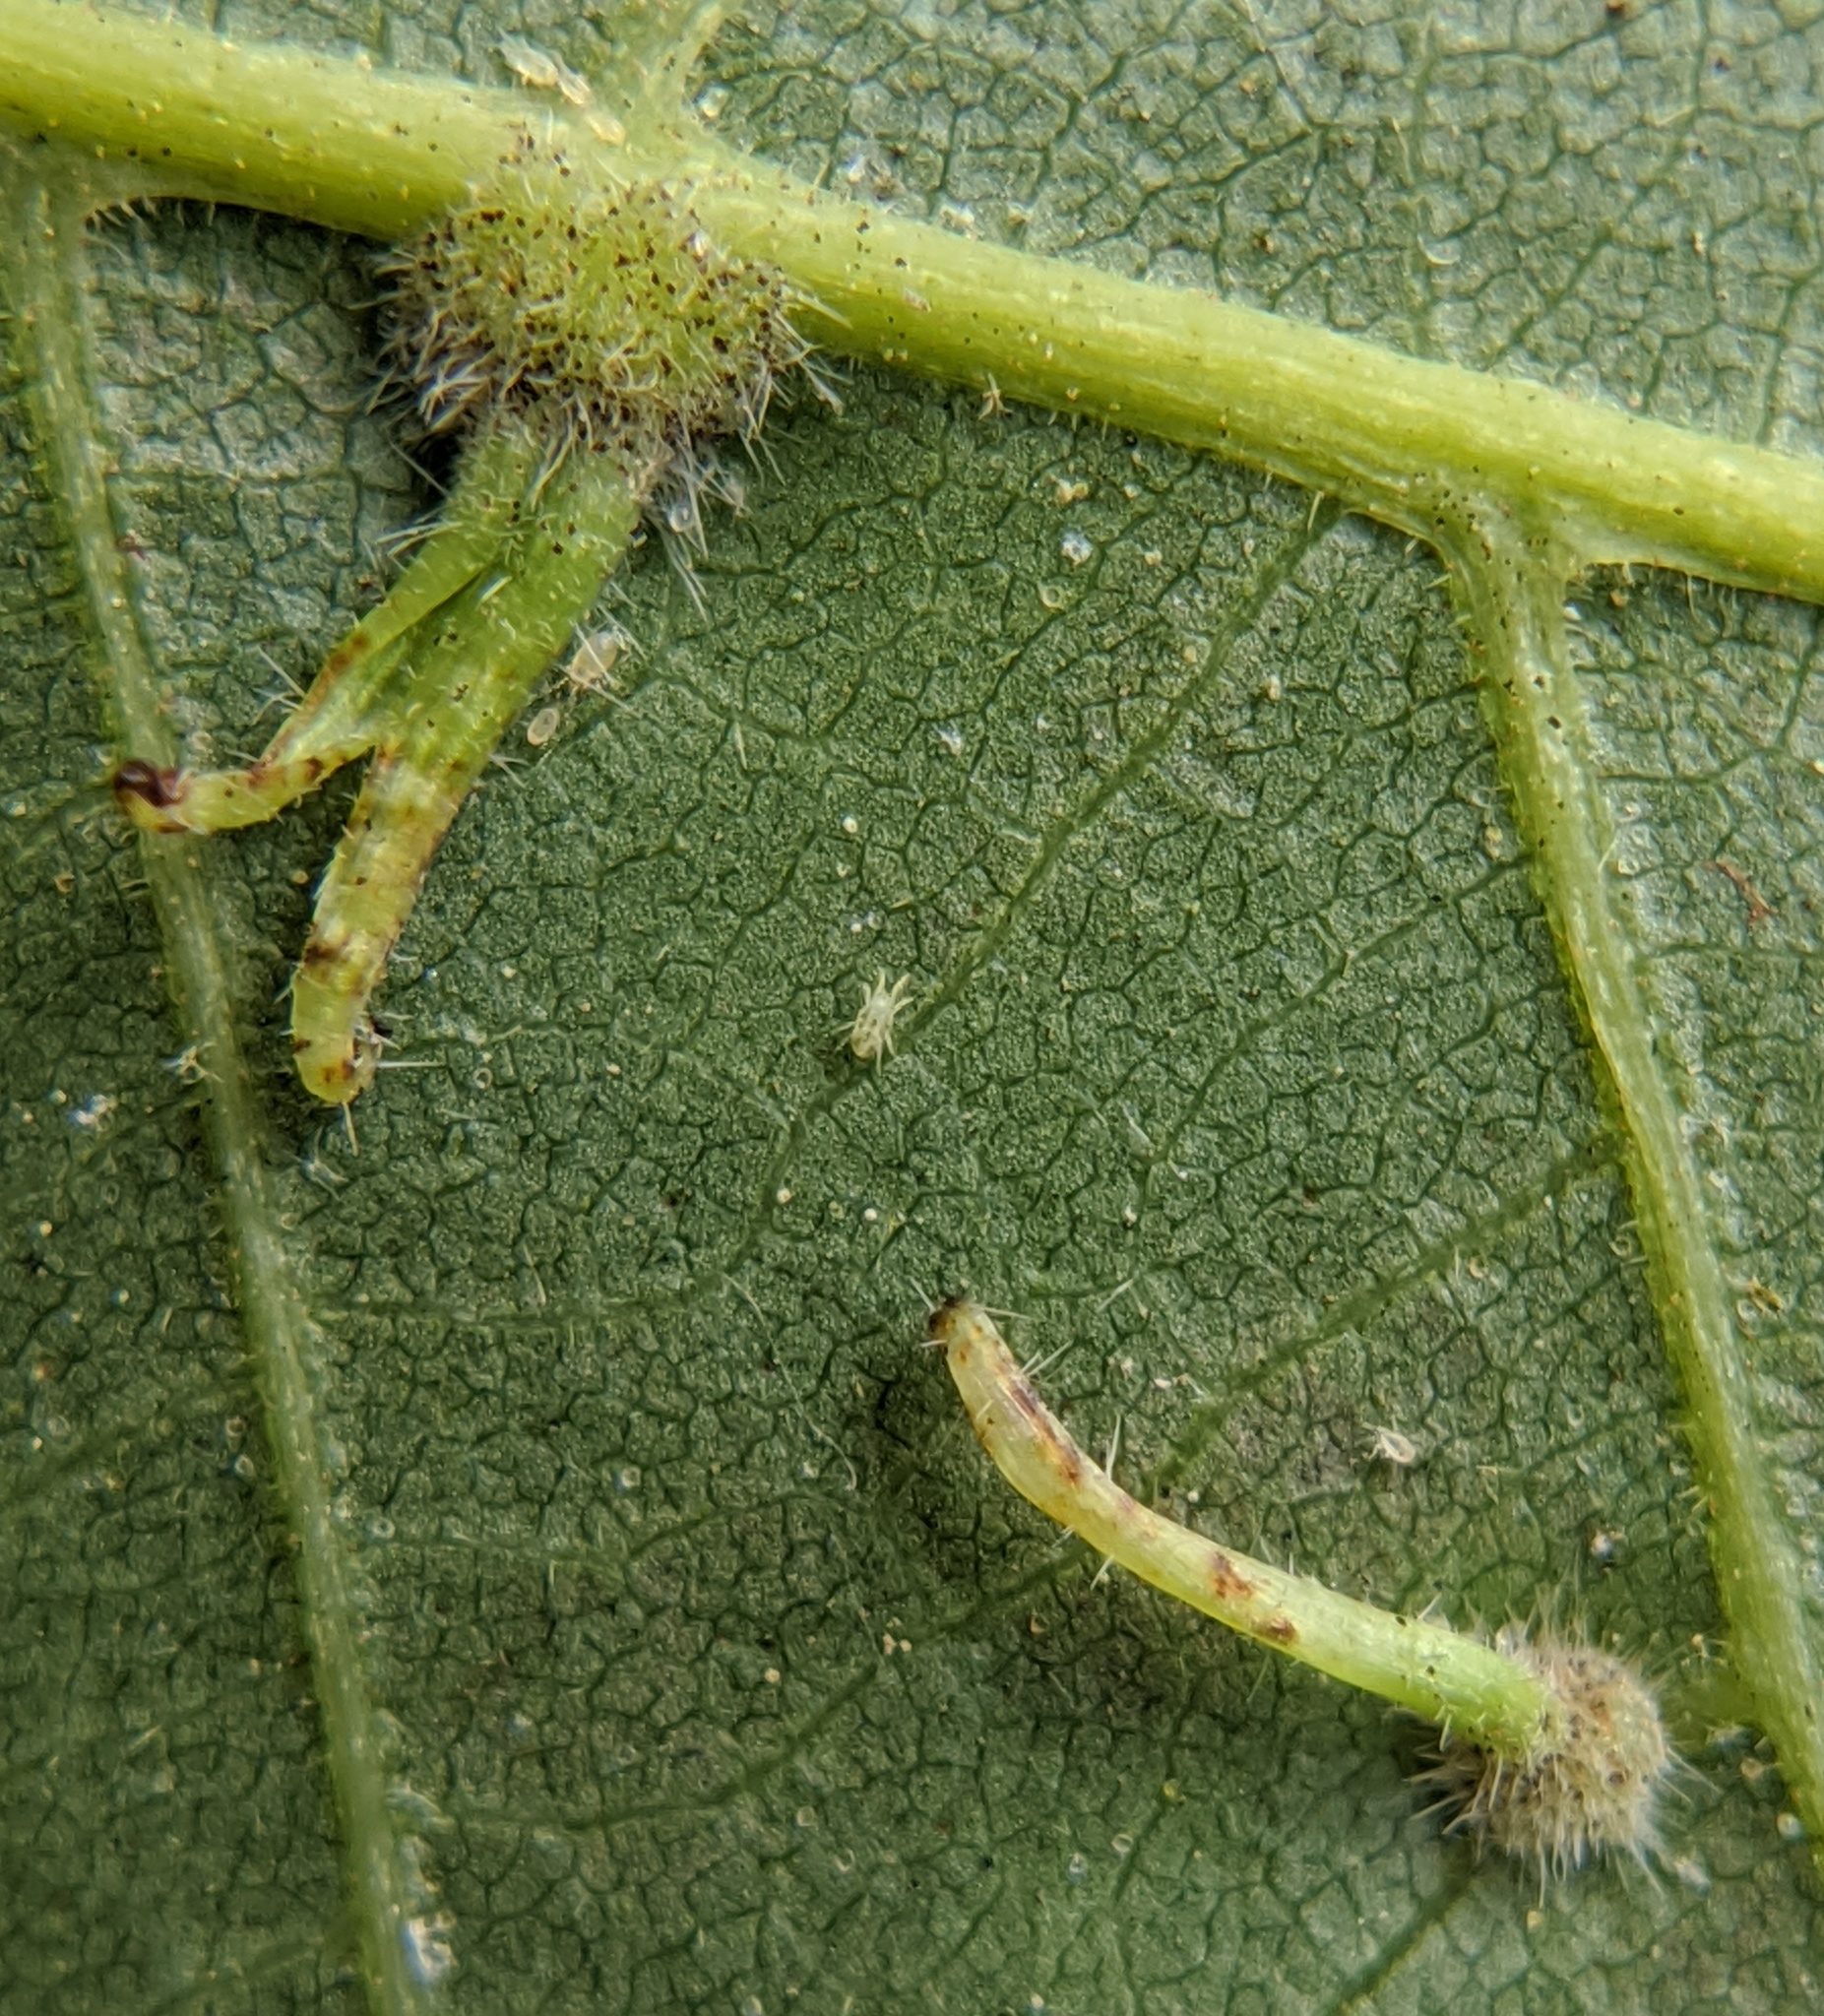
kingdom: Animalia
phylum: Arthropoda
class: Insecta
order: Diptera
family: Cecidomyiidae
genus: Caryomyia
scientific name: Caryomyia inclinata
